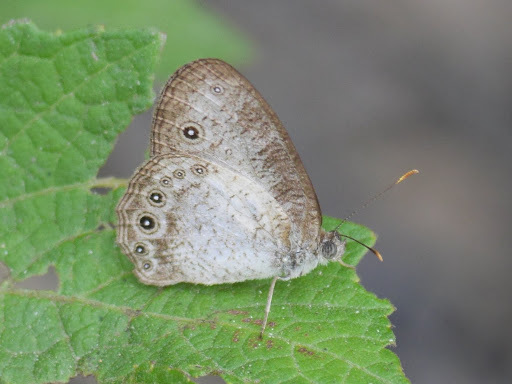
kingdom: Animalia
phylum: Arthropoda
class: Insecta
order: Lepidoptera
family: Nymphalidae
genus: Bicyclus
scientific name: Bicyclus dorothea
